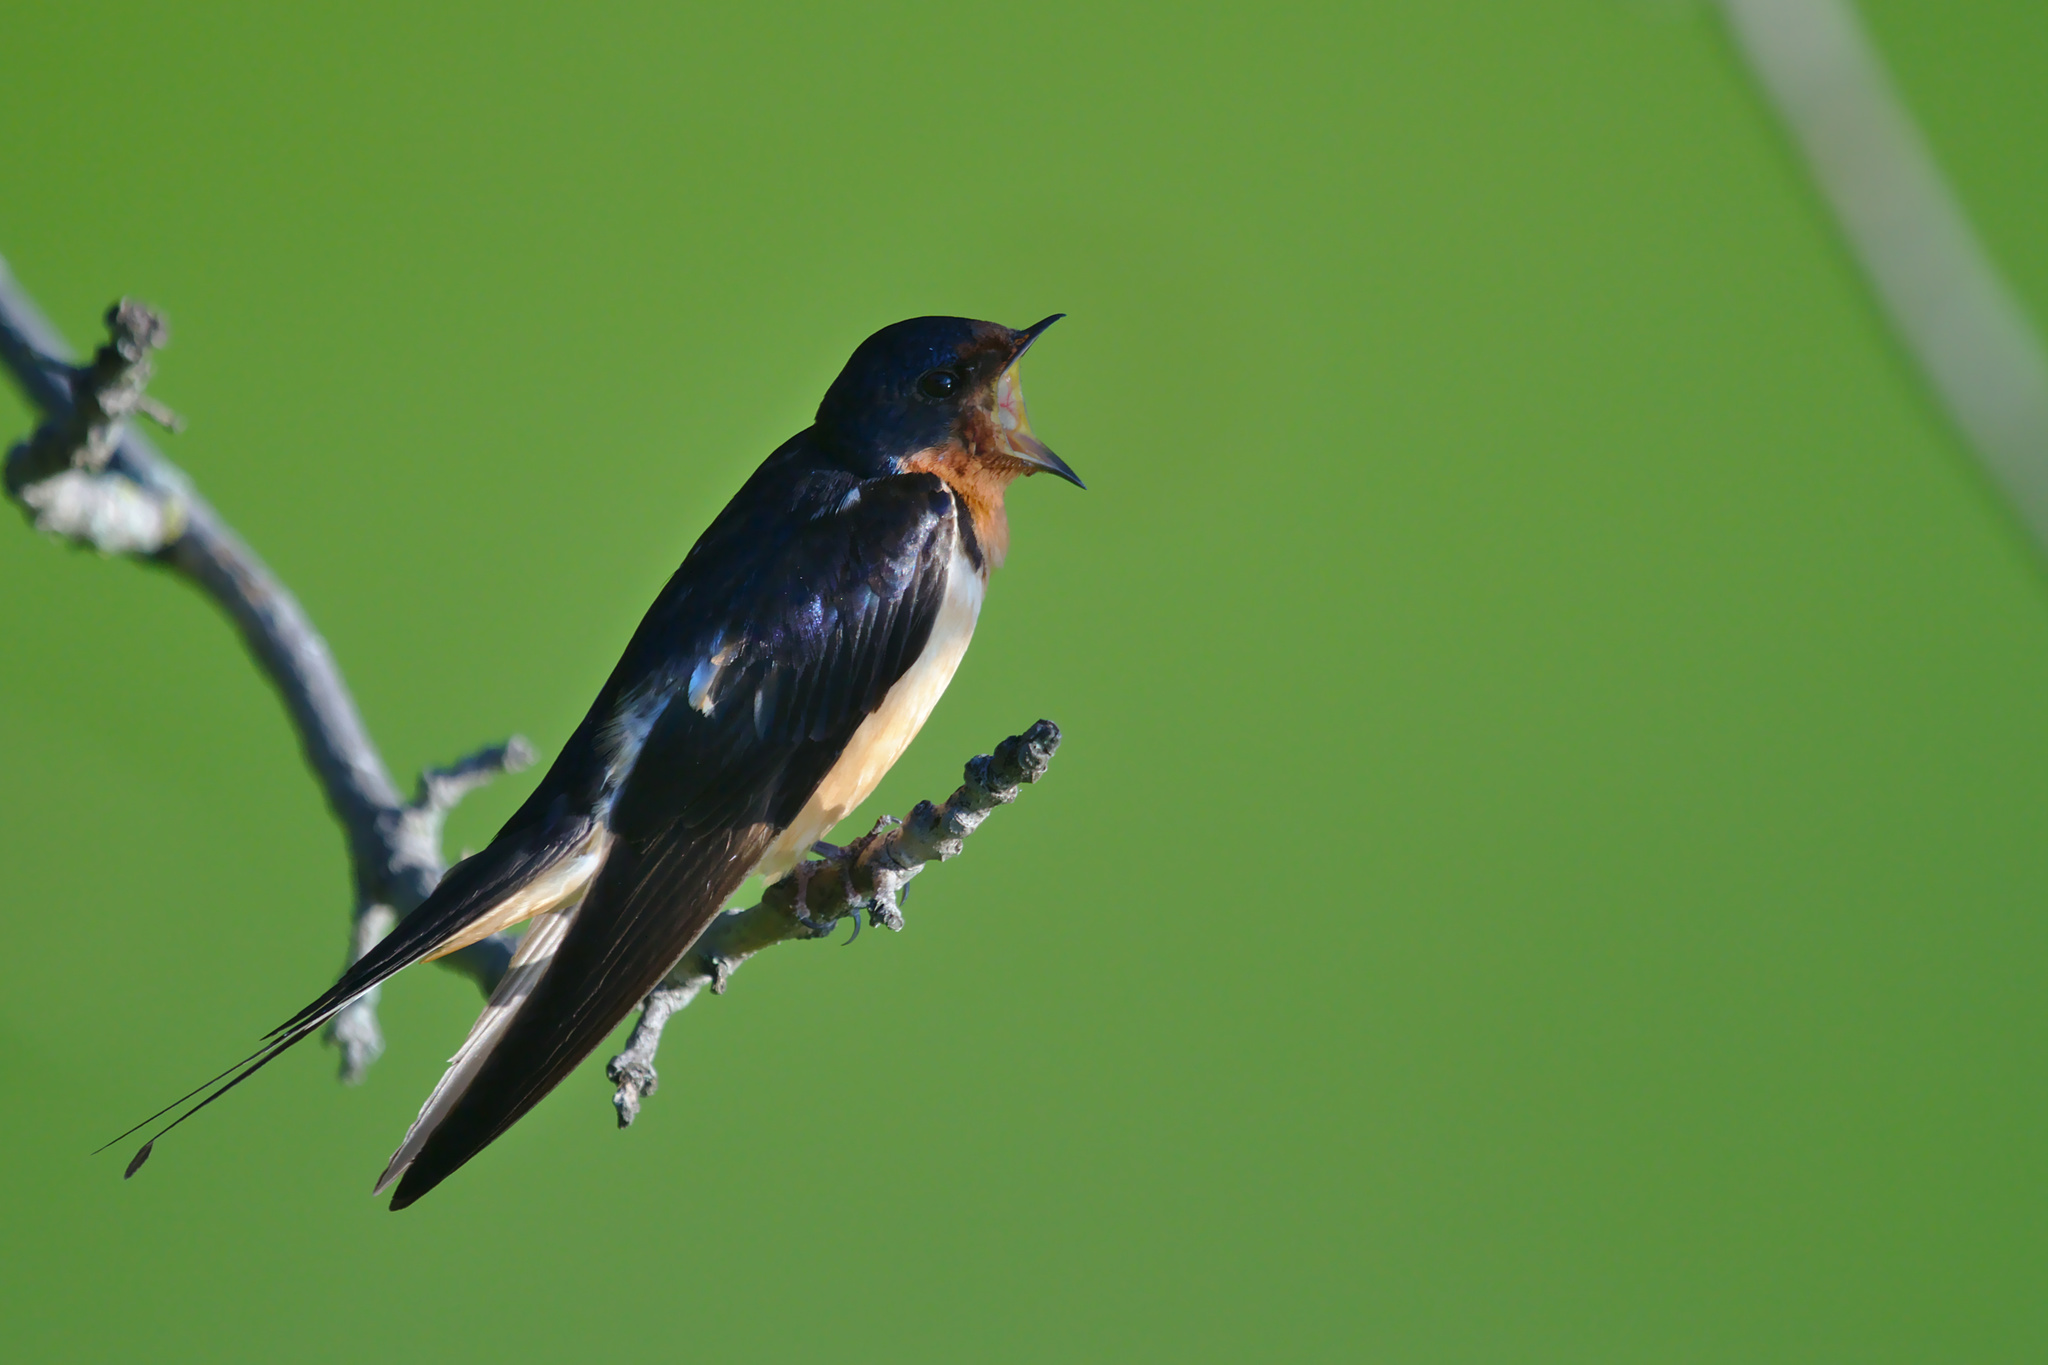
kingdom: Animalia
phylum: Chordata
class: Aves
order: Passeriformes
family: Hirundinidae
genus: Hirundo
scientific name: Hirundo rustica
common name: Barn swallow
